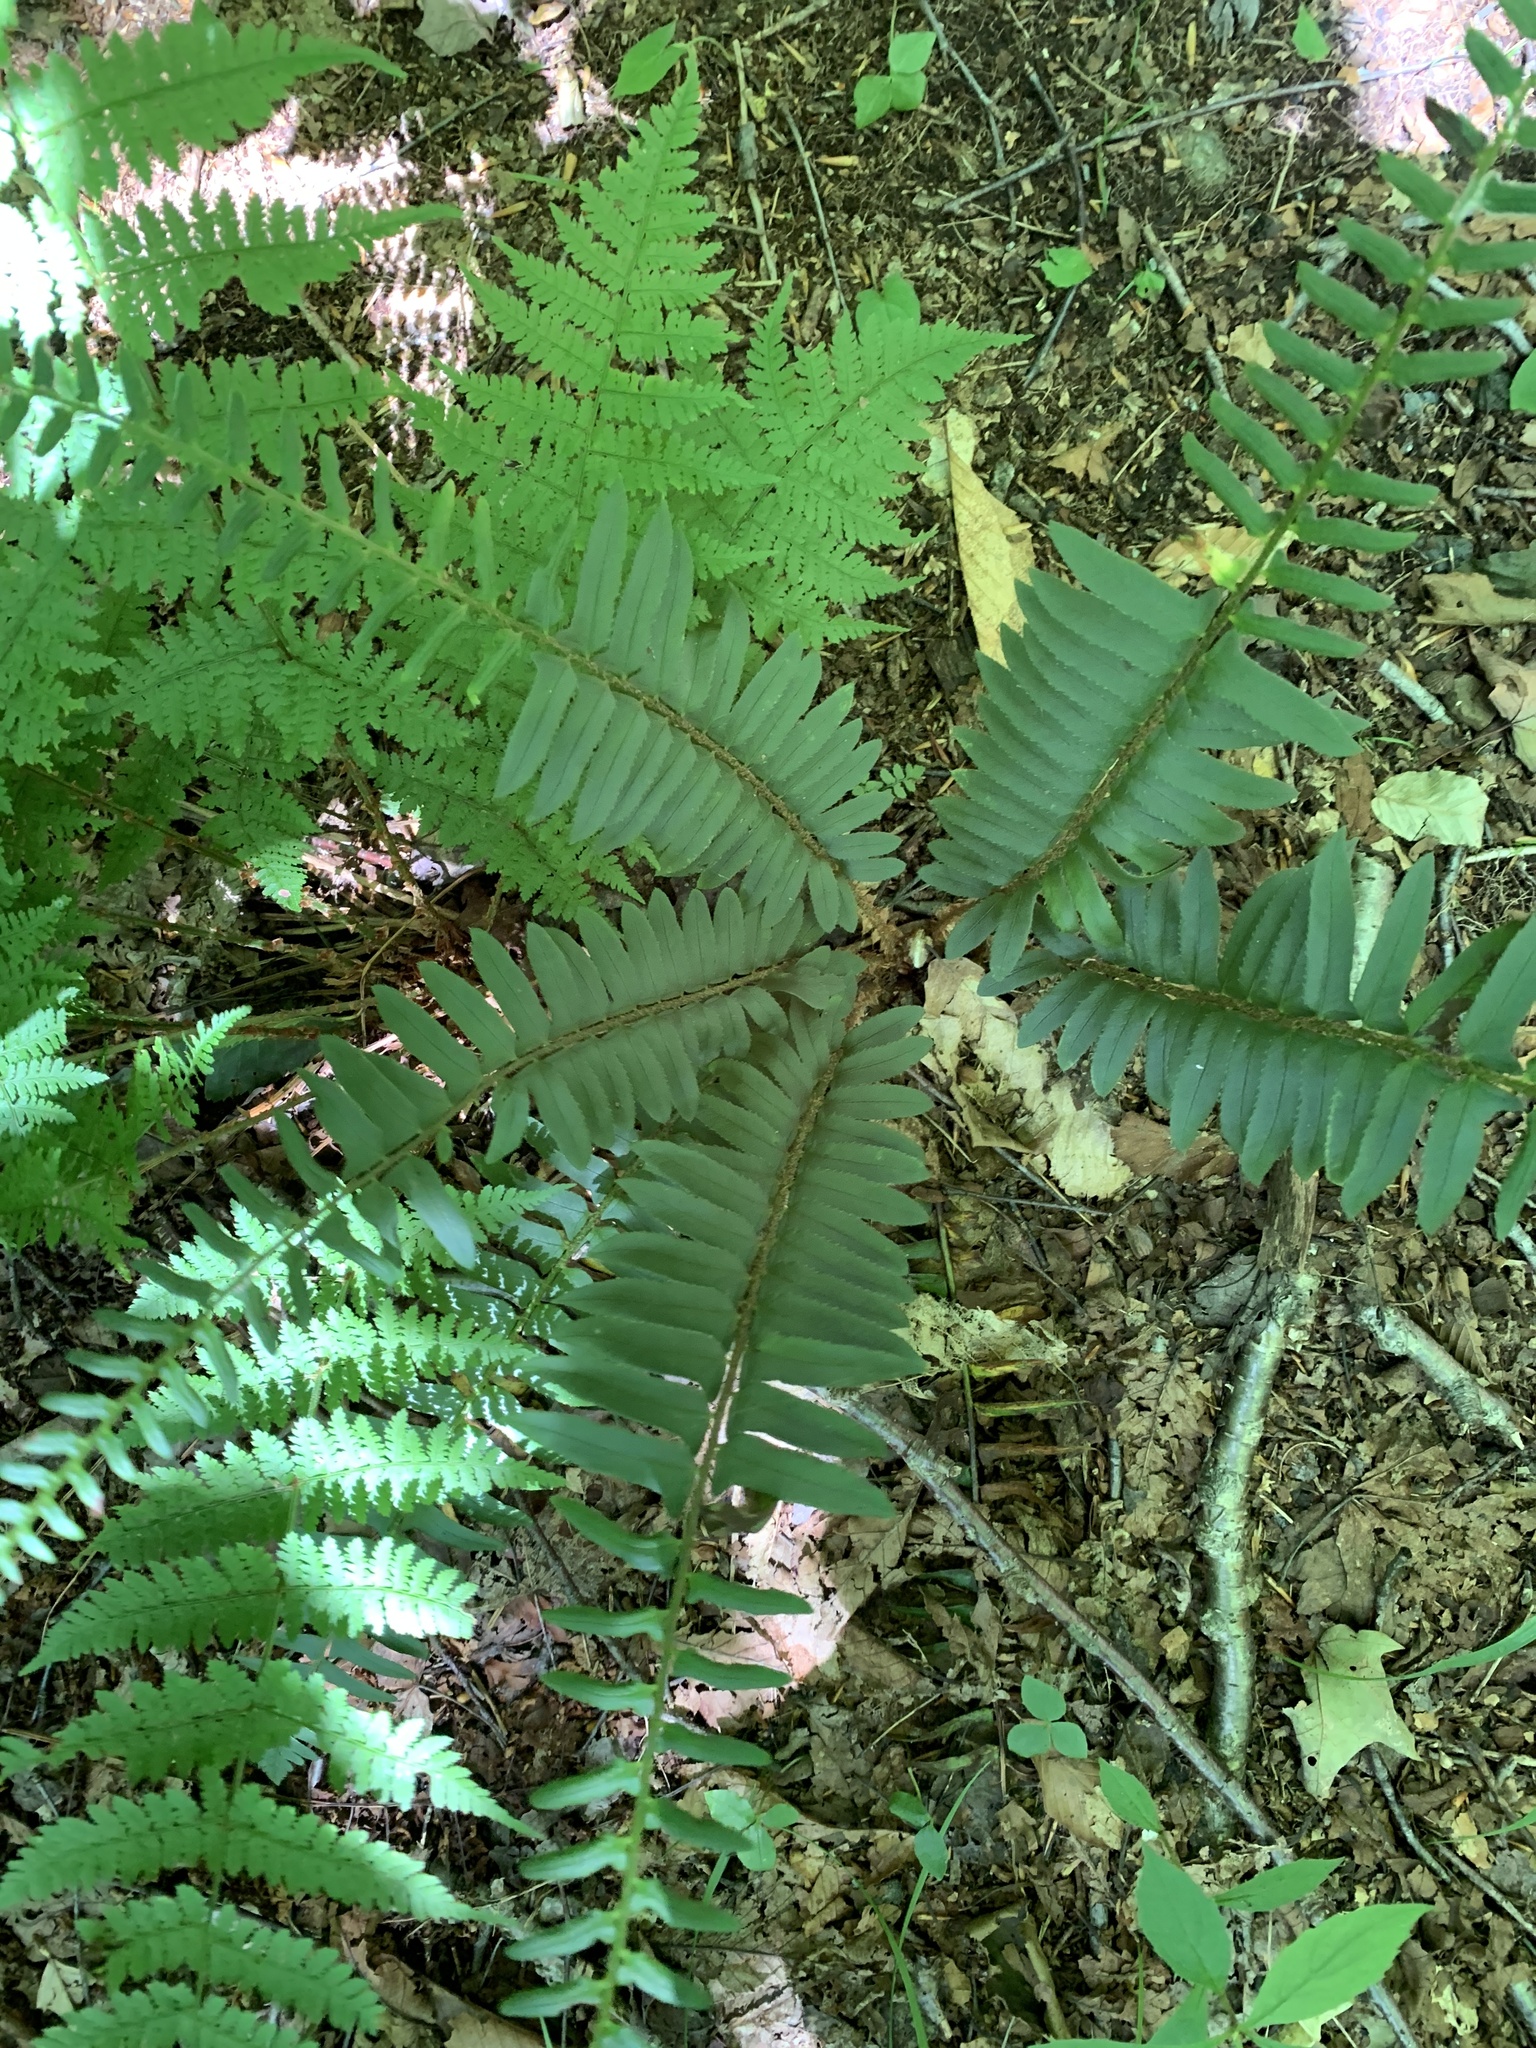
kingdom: Plantae
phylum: Tracheophyta
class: Polypodiopsida
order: Polypodiales
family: Dryopteridaceae
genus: Polystichum
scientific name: Polystichum acrostichoides
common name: Christmas fern
